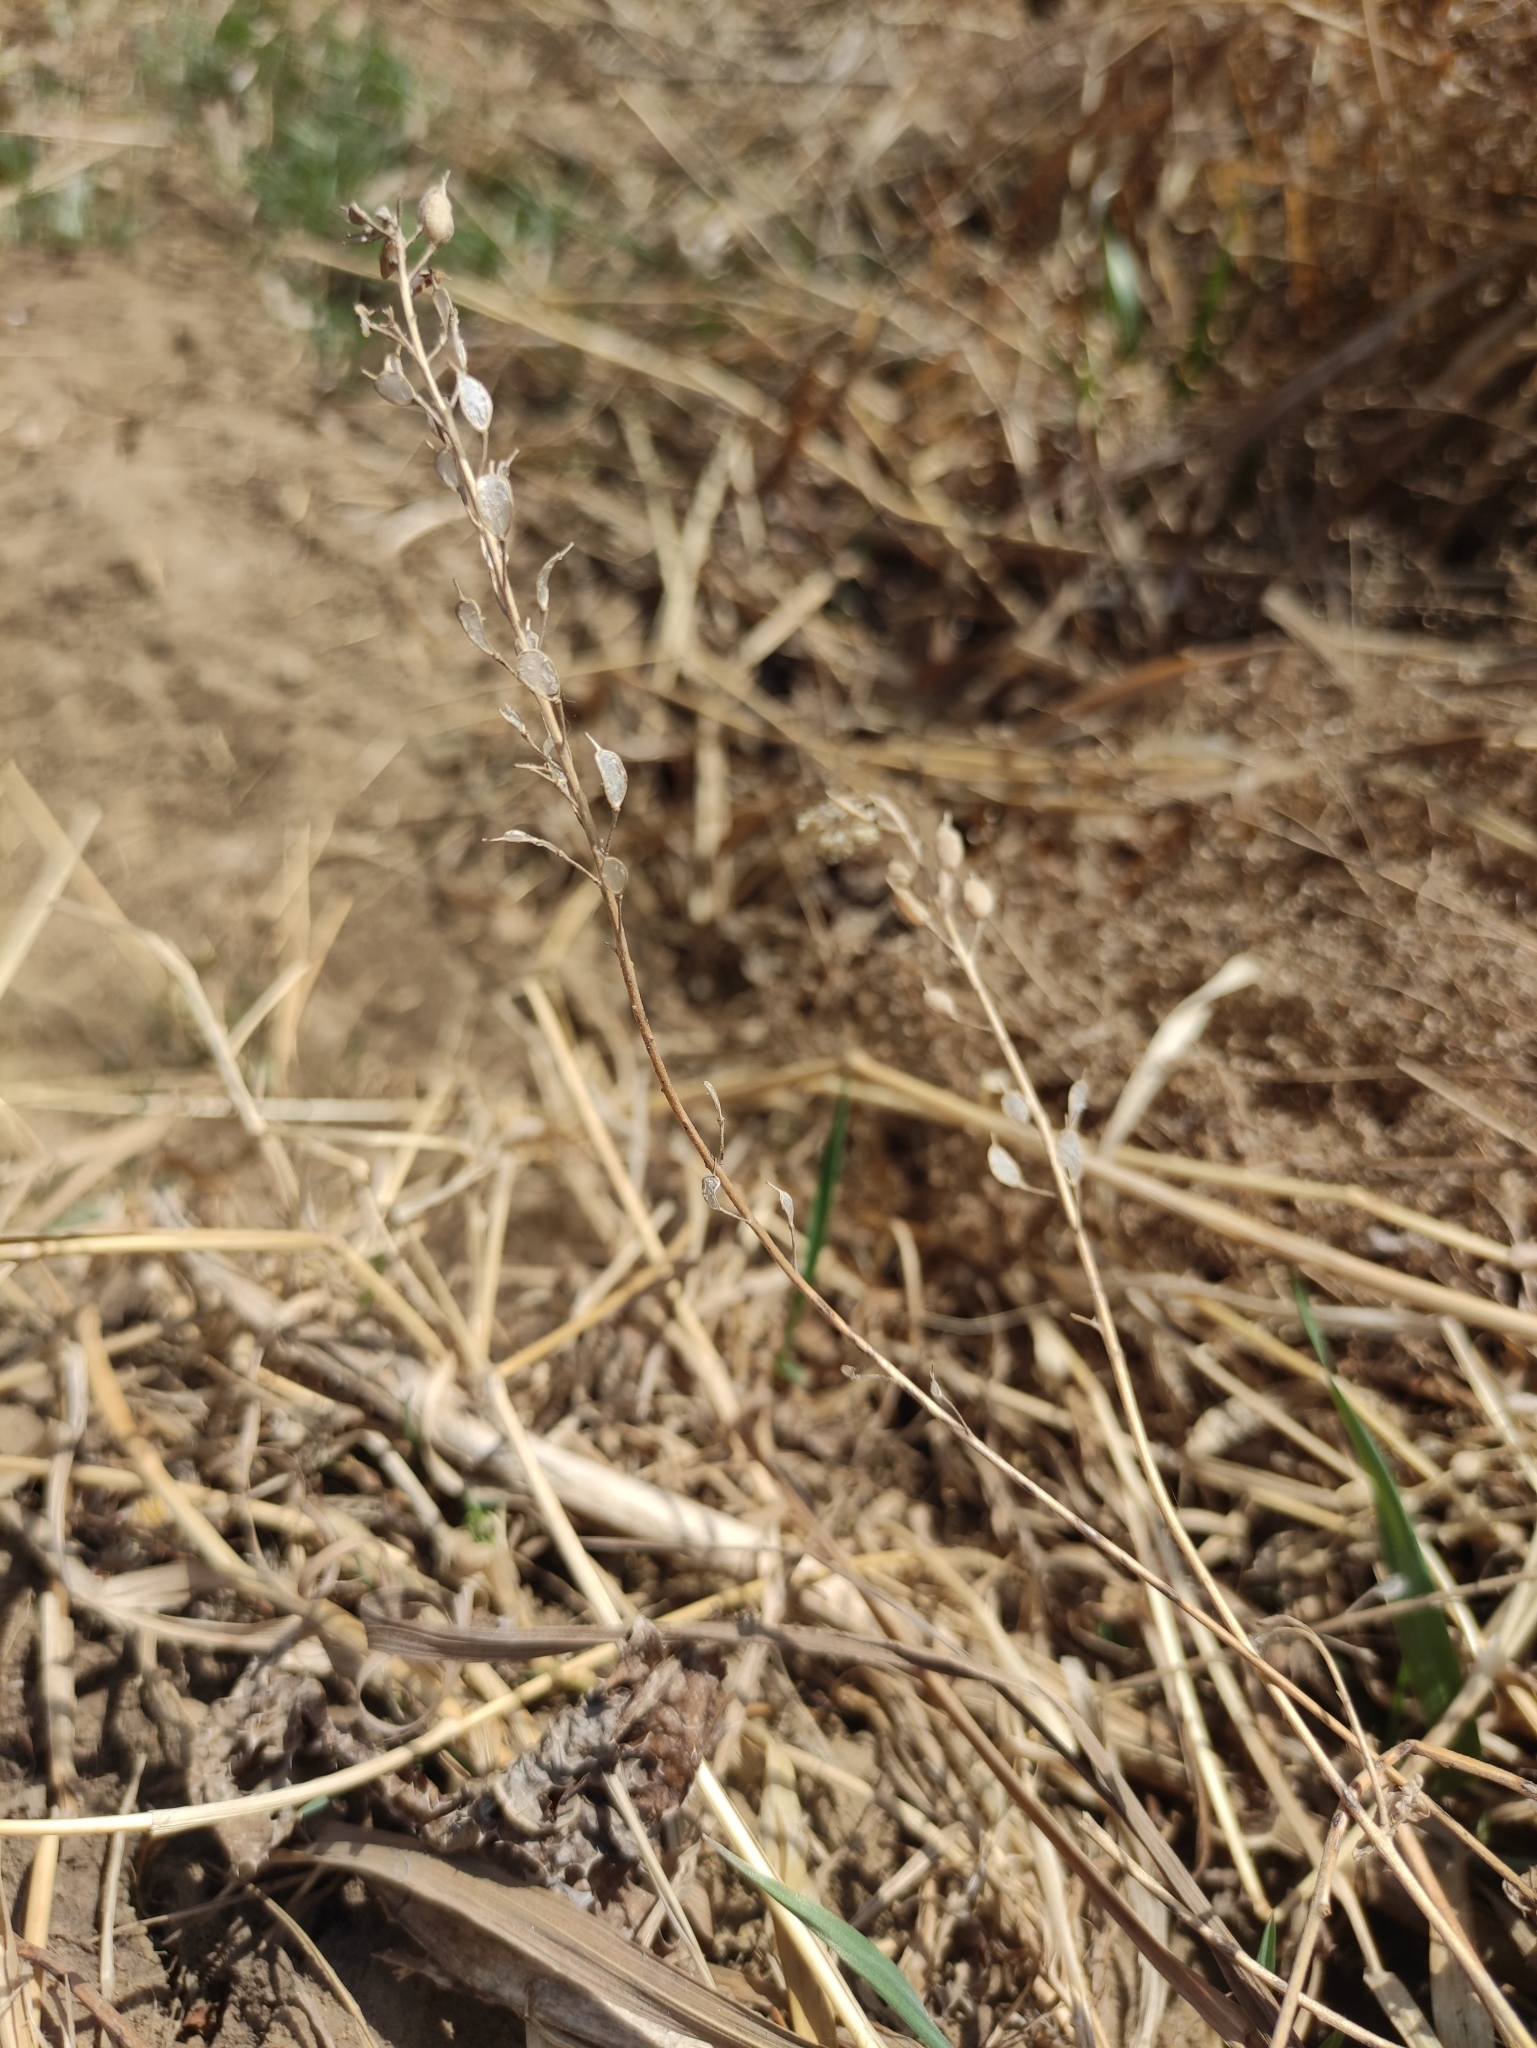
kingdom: Plantae
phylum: Tracheophyta
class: Magnoliopsida
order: Brassicales
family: Brassicaceae
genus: Berteroa
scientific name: Berteroa incana
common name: Hoary alison
